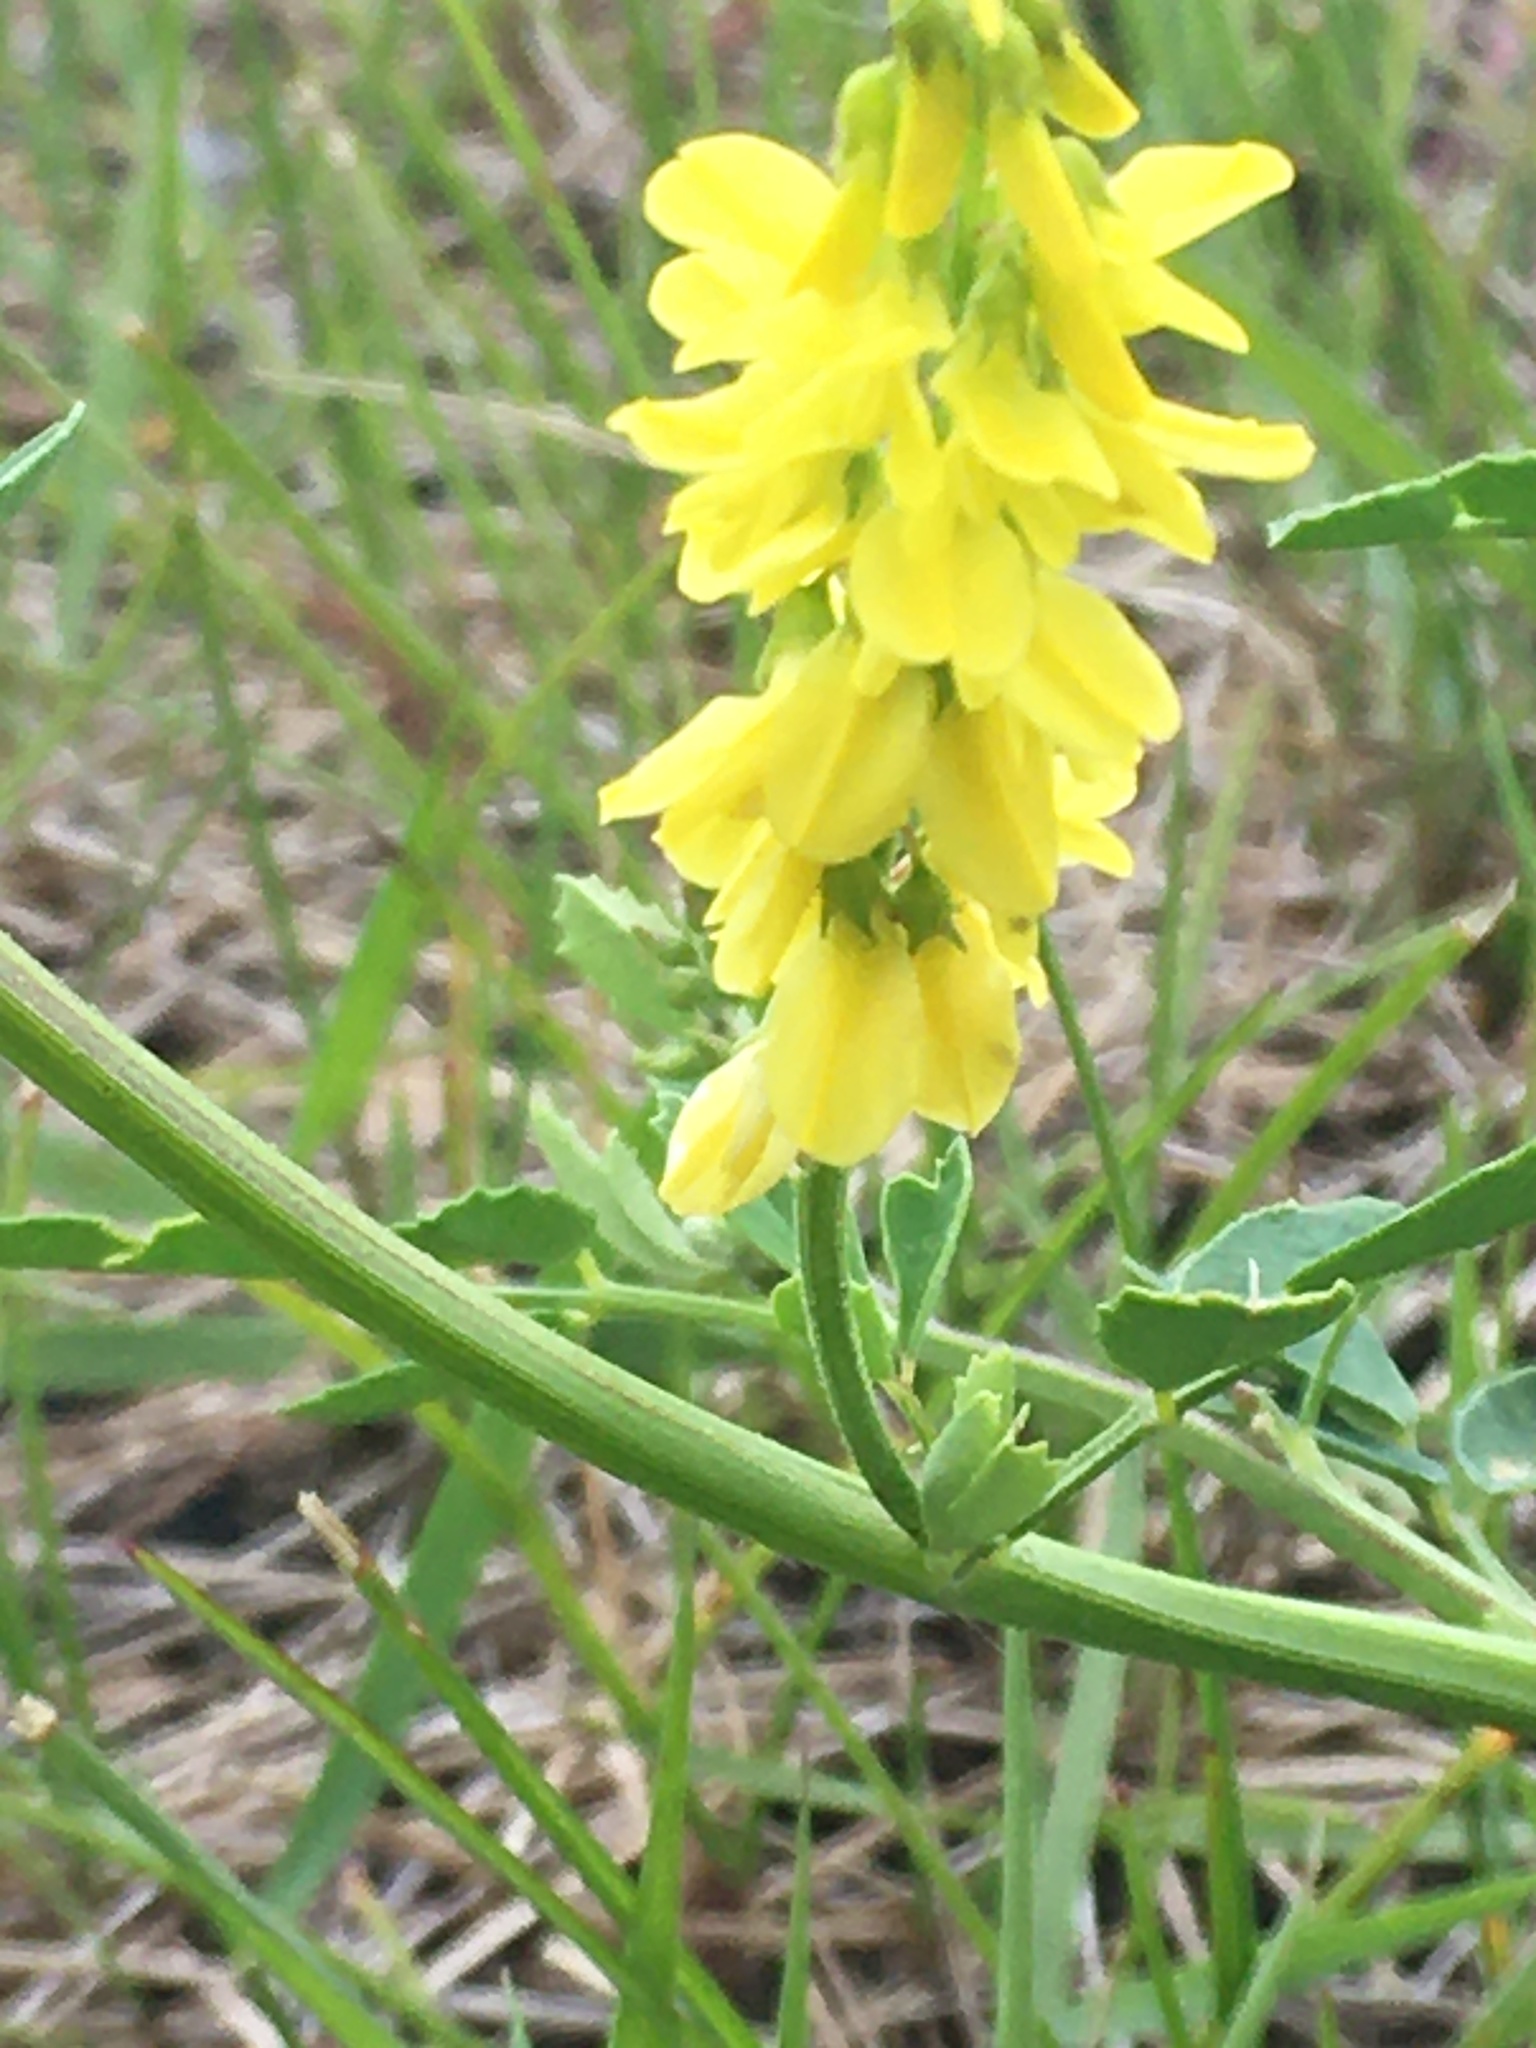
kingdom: Plantae
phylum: Tracheophyta
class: Magnoliopsida
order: Fabales
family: Fabaceae
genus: Melilotus
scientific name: Melilotus officinalis
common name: Sweetclover
